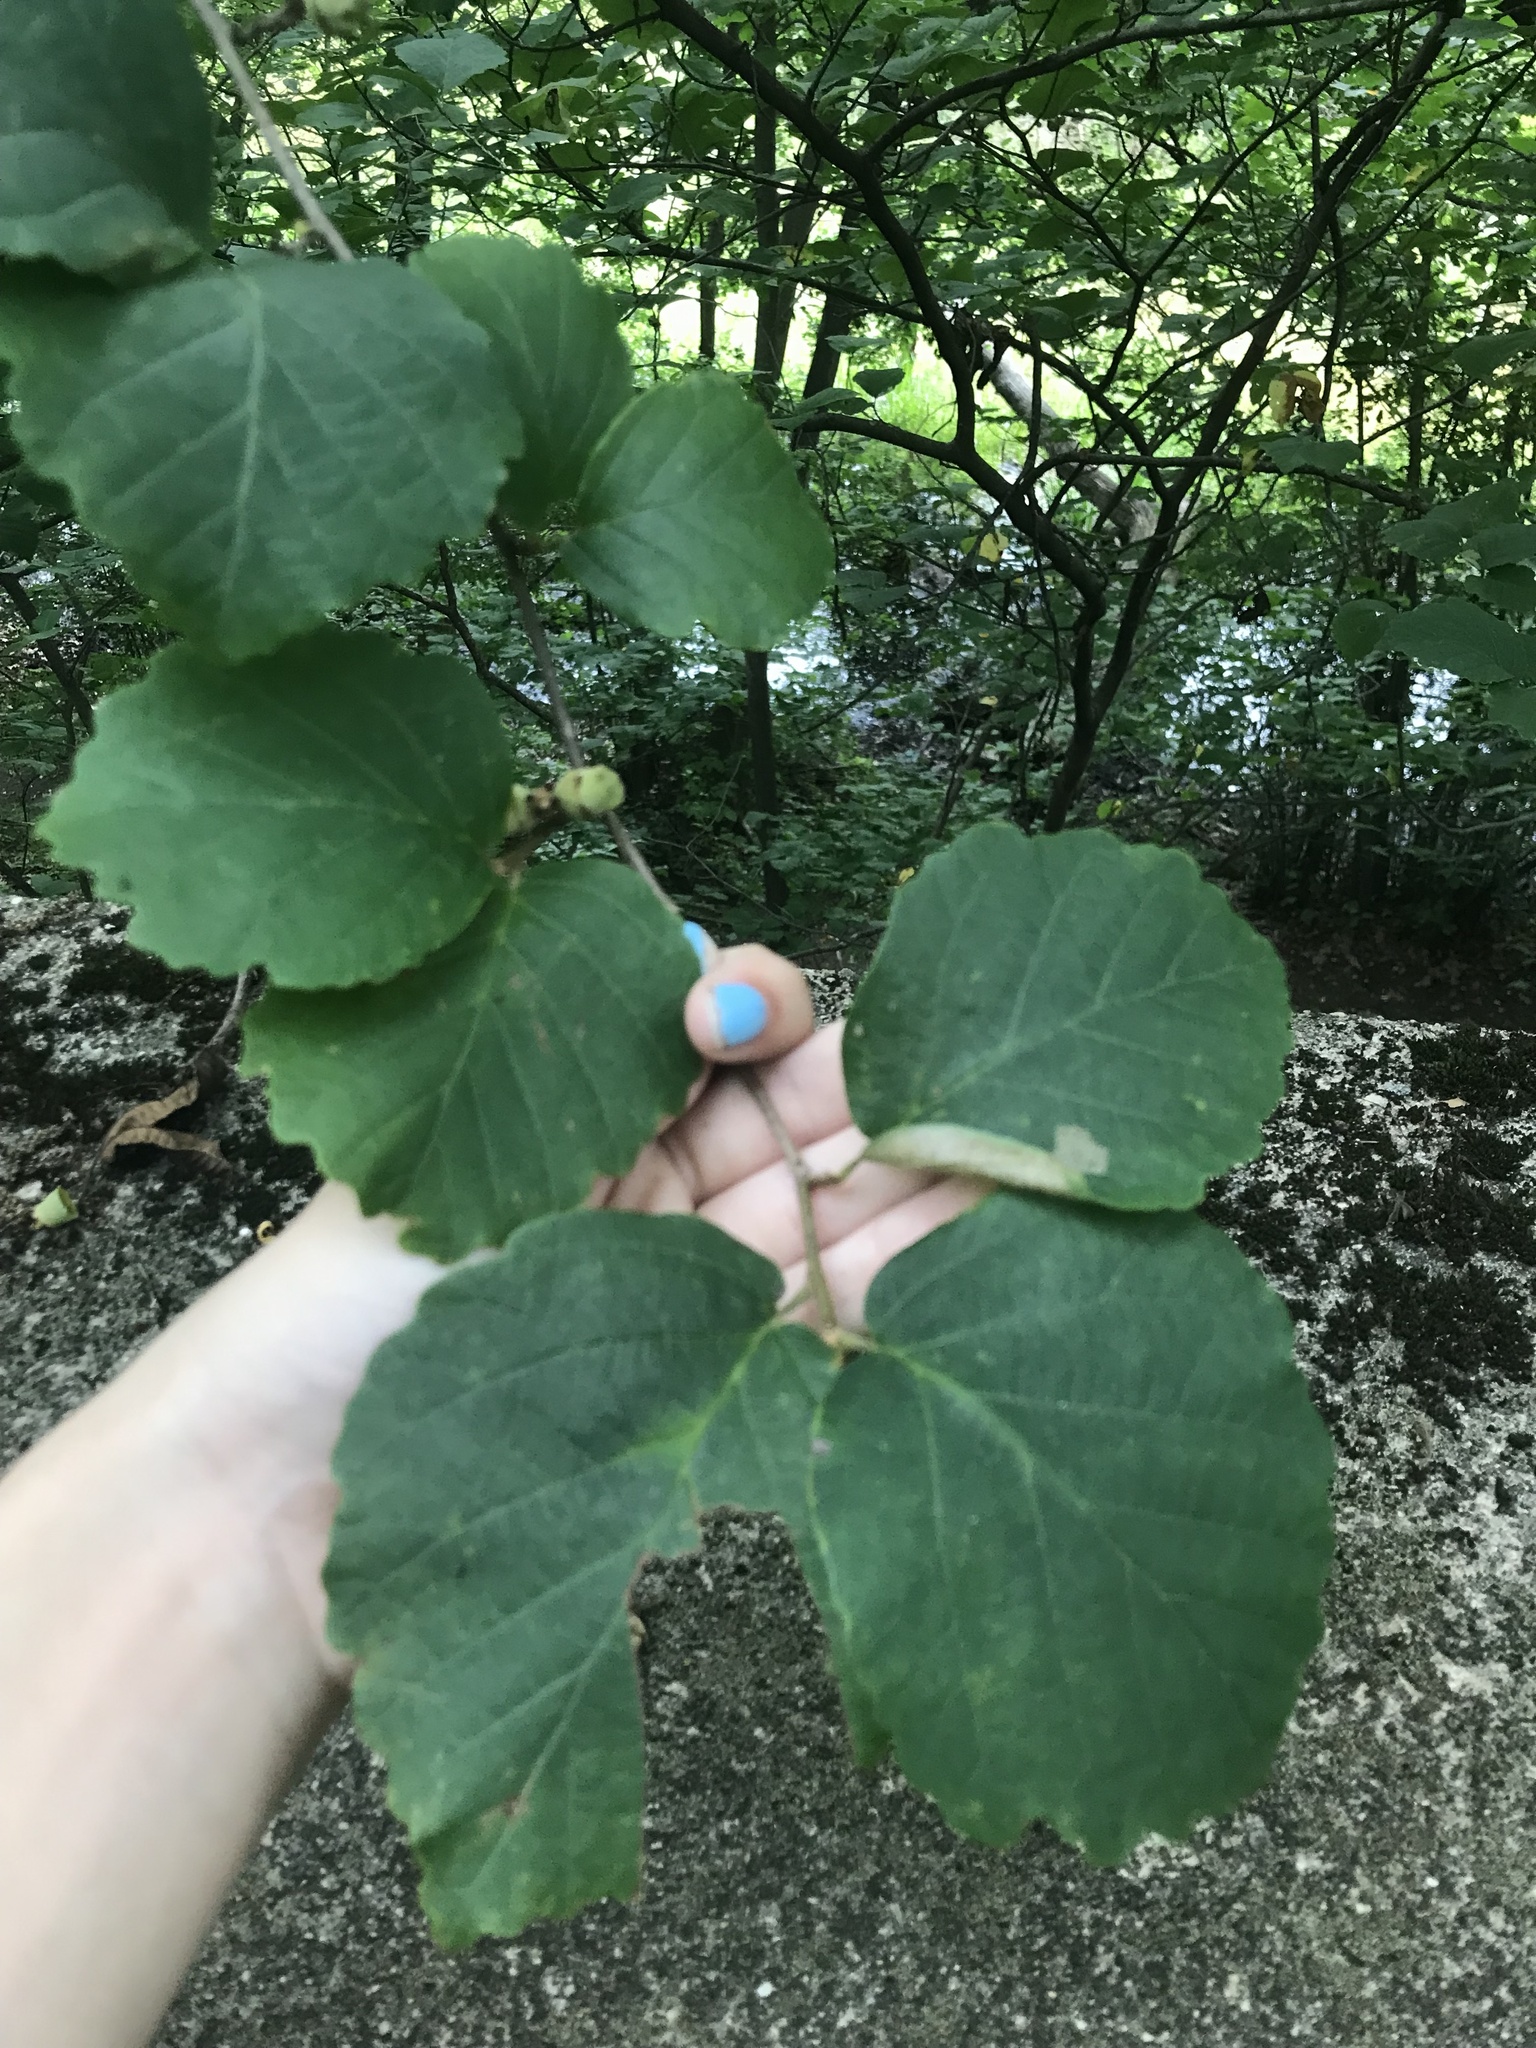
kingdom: Plantae
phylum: Tracheophyta
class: Magnoliopsida
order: Saxifragales
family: Hamamelidaceae
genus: Hamamelis
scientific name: Hamamelis virginiana
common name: Witch-hazel
